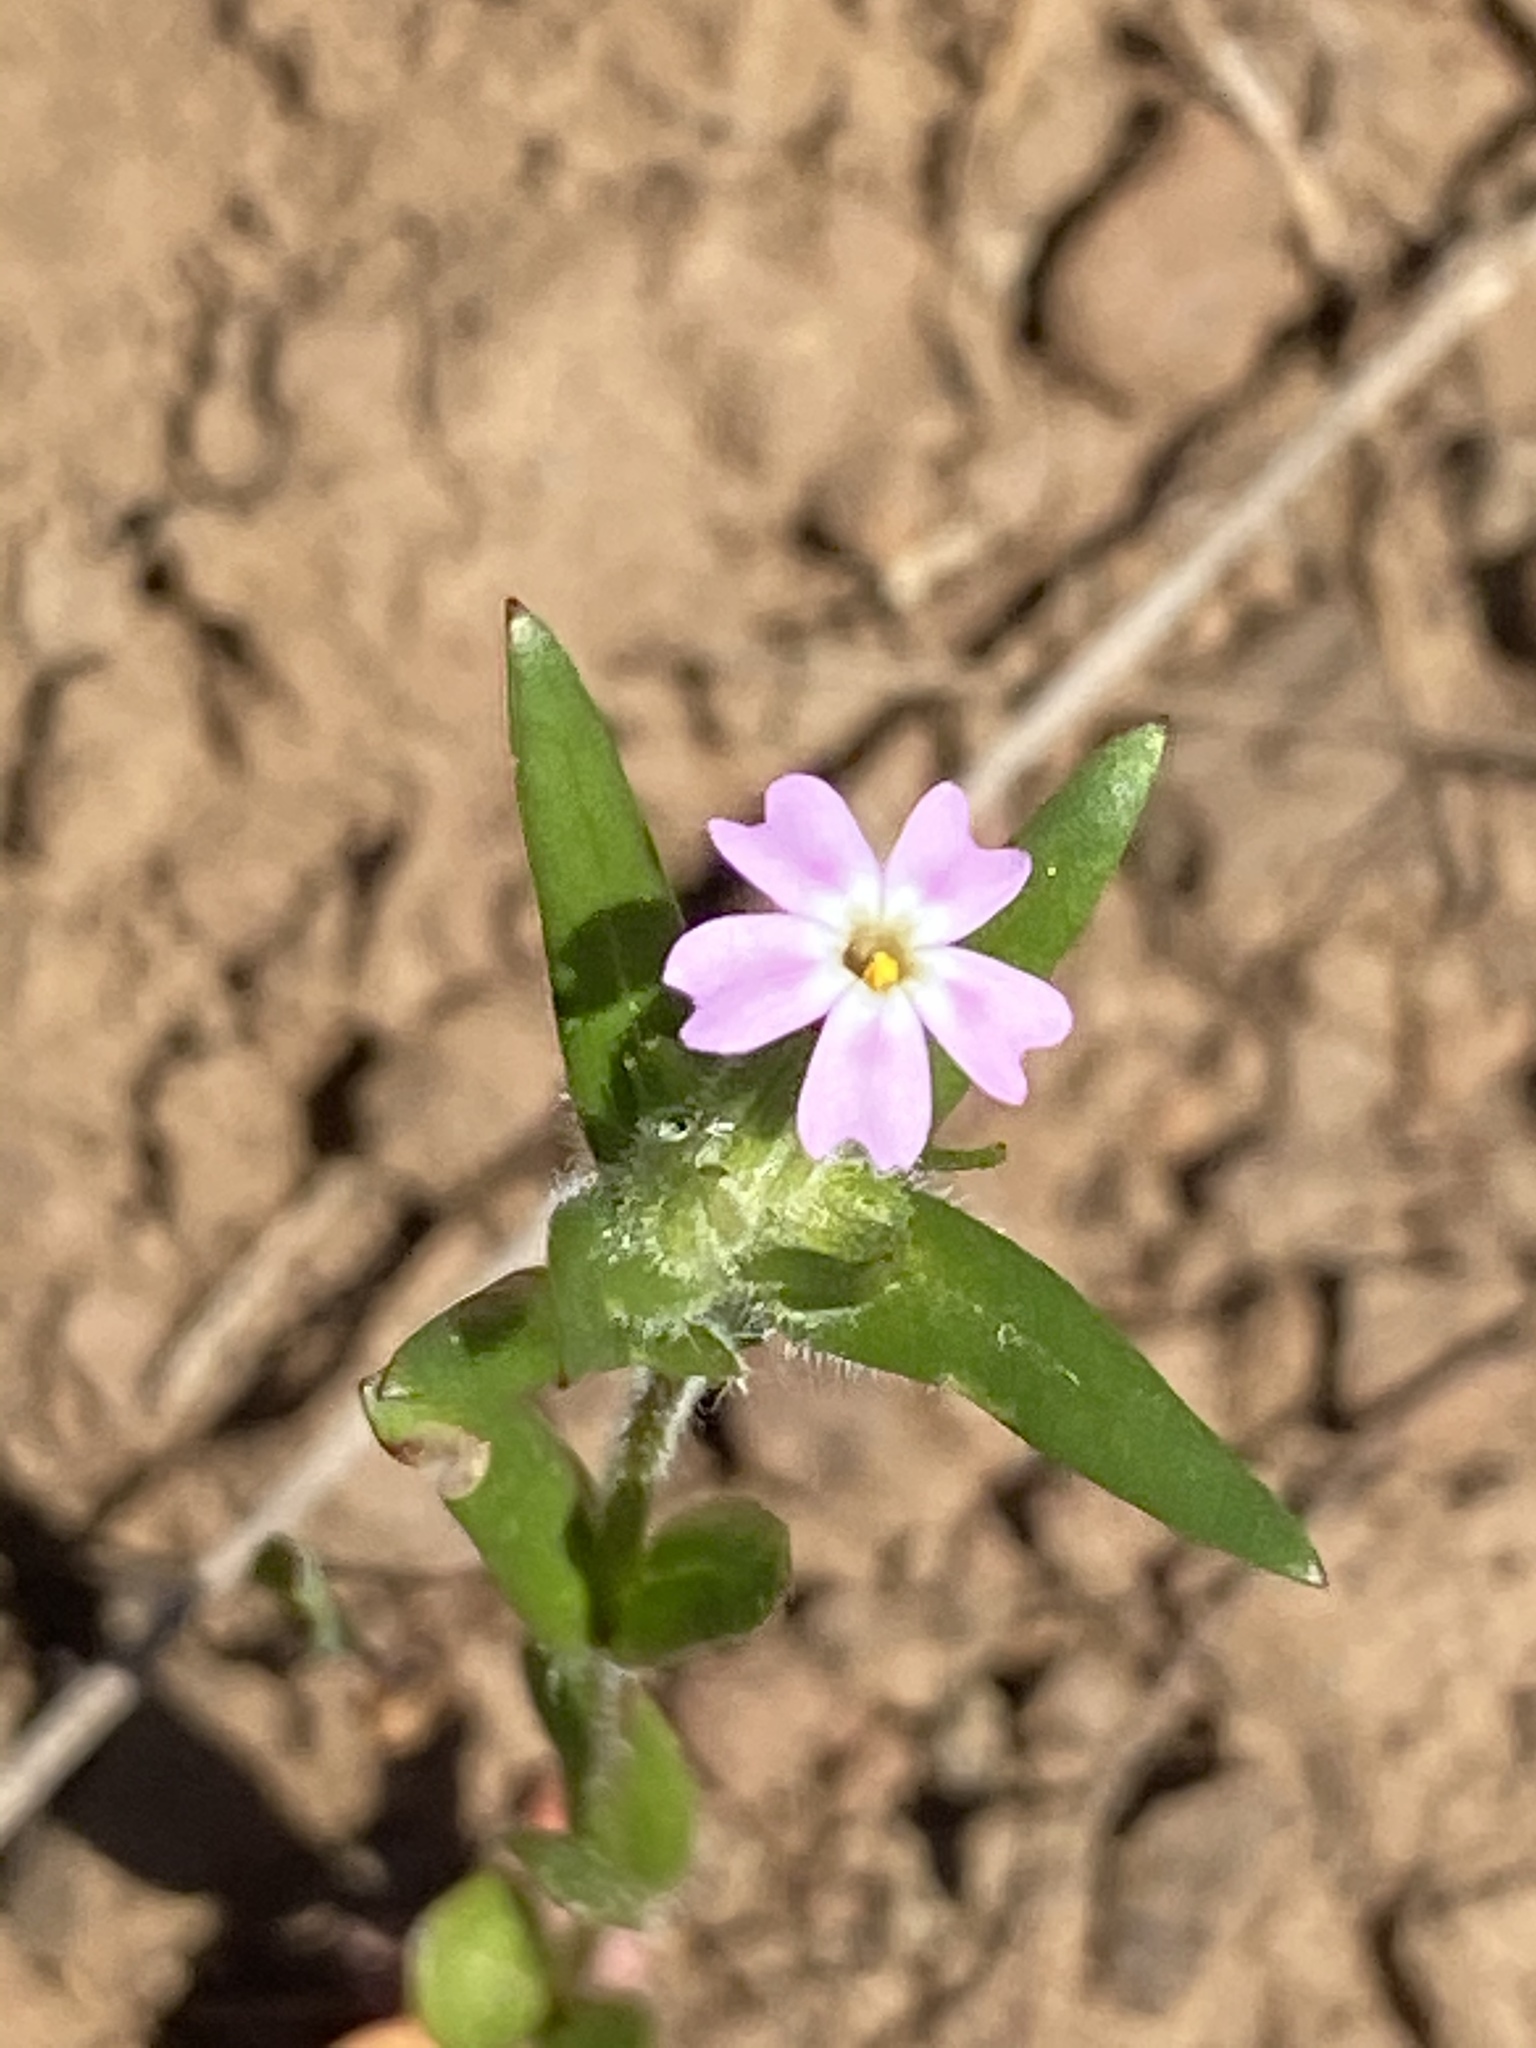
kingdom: Plantae
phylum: Tracheophyta
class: Magnoliopsida
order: Ericales
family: Polemoniaceae
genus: Phlox
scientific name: Phlox gracilis
